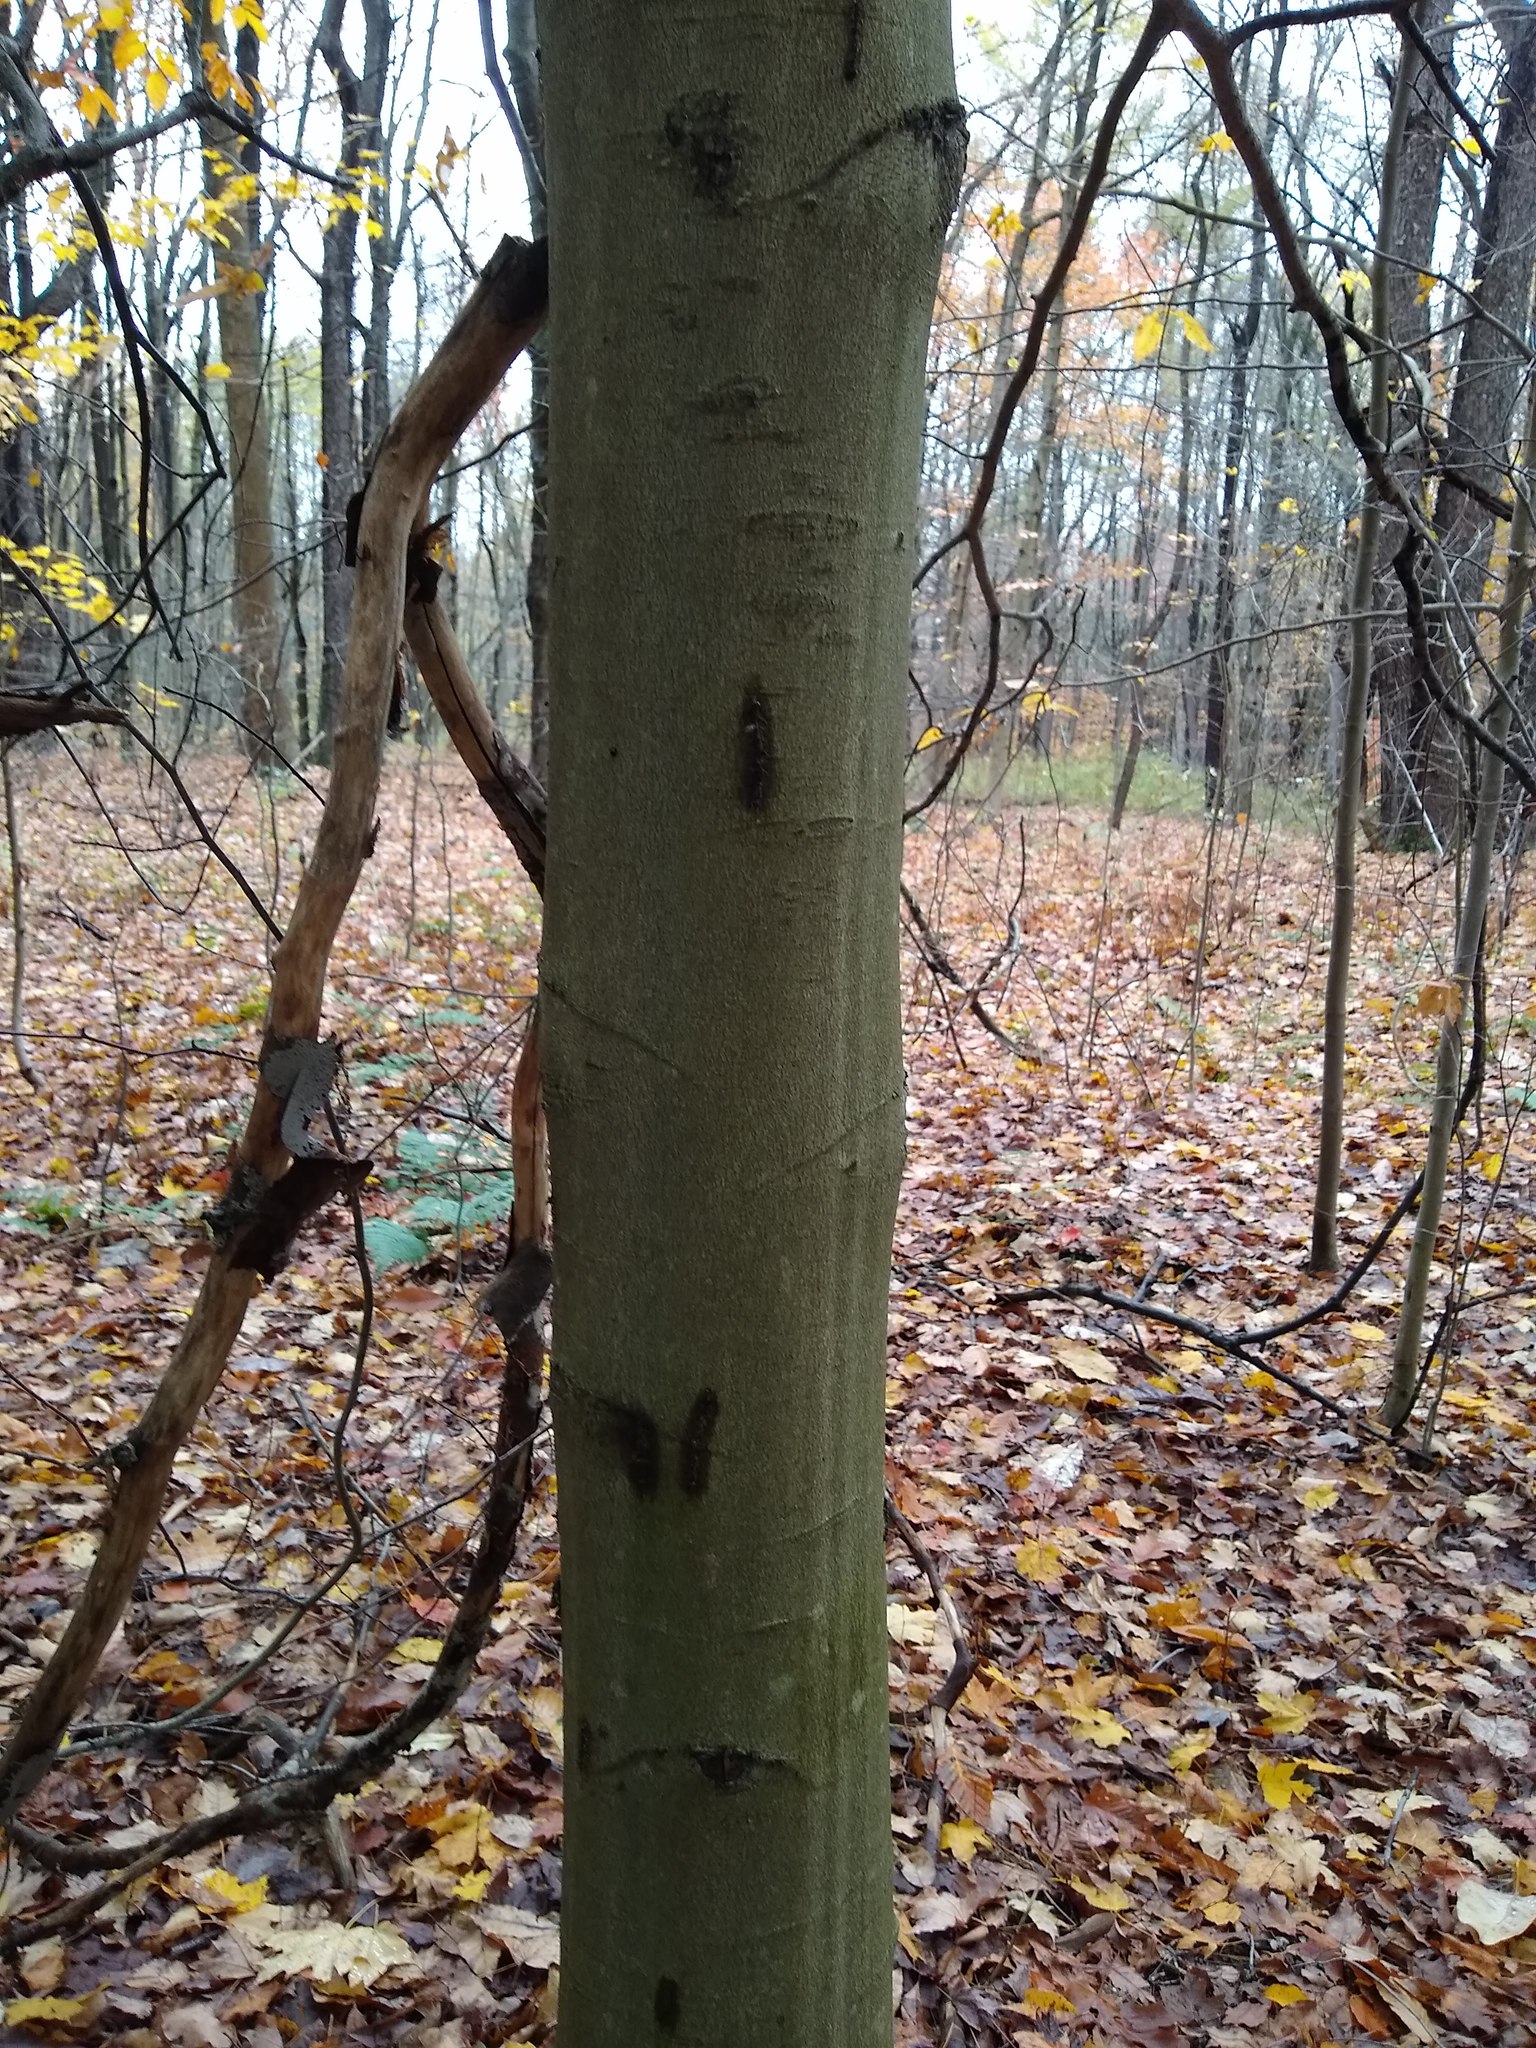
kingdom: Plantae
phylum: Tracheophyta
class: Magnoliopsida
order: Fagales
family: Fagaceae
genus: Fagus
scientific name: Fagus grandifolia
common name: American beech
